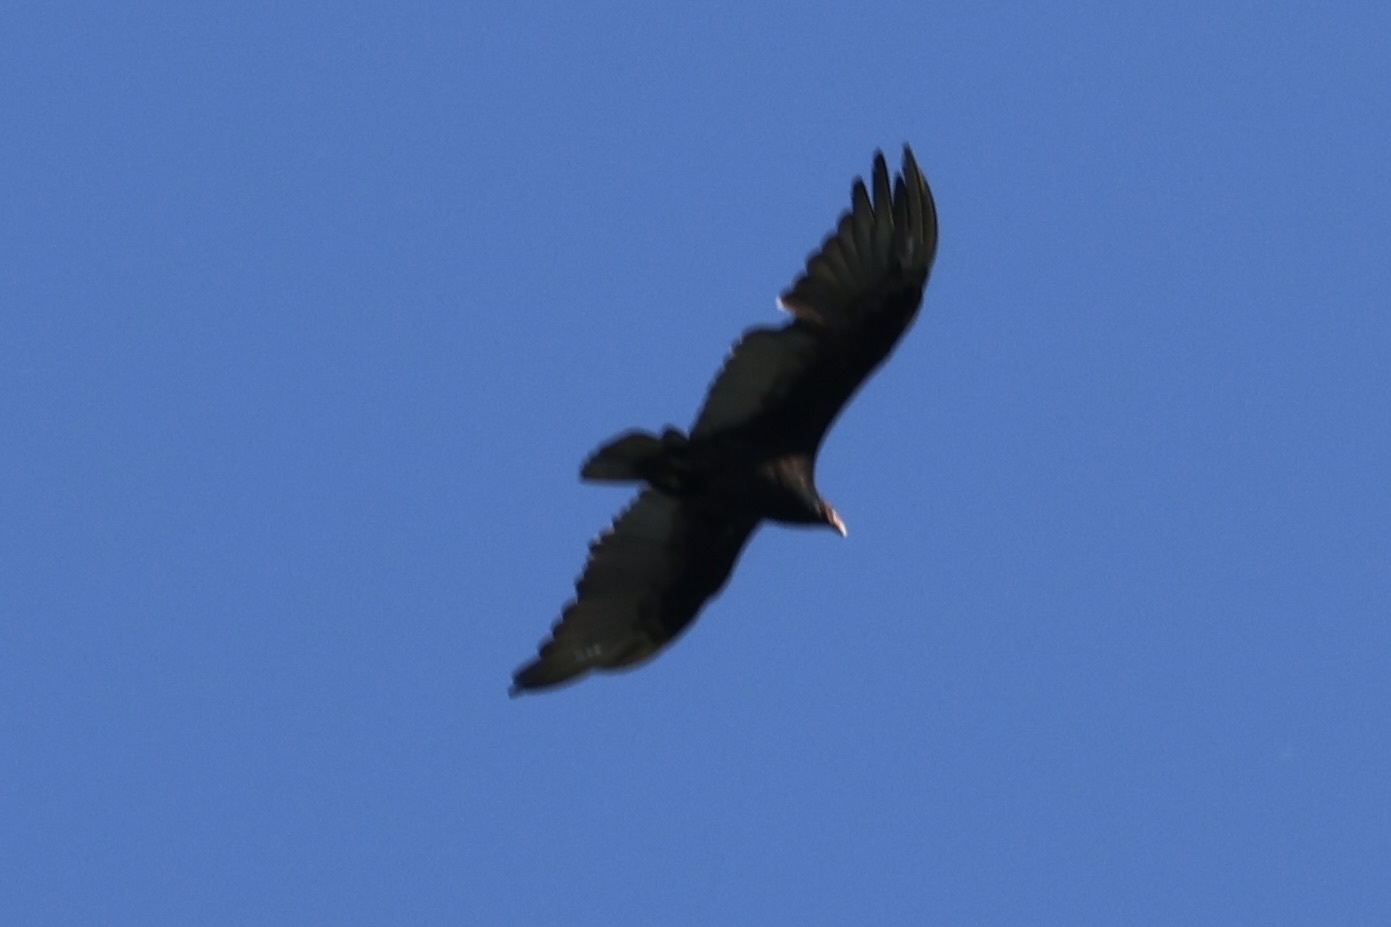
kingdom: Animalia
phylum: Chordata
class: Aves
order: Accipitriformes
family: Cathartidae
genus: Cathartes
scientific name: Cathartes aura
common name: Turkey vulture
